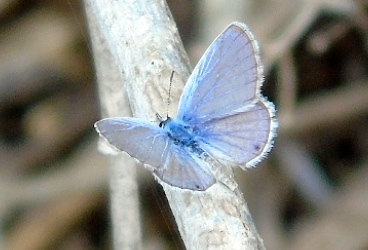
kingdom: Animalia
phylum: Arthropoda
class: Insecta
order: Lepidoptera
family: Lycaenidae
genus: Echinargus
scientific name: Echinargus isola
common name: Reakirt's blue
